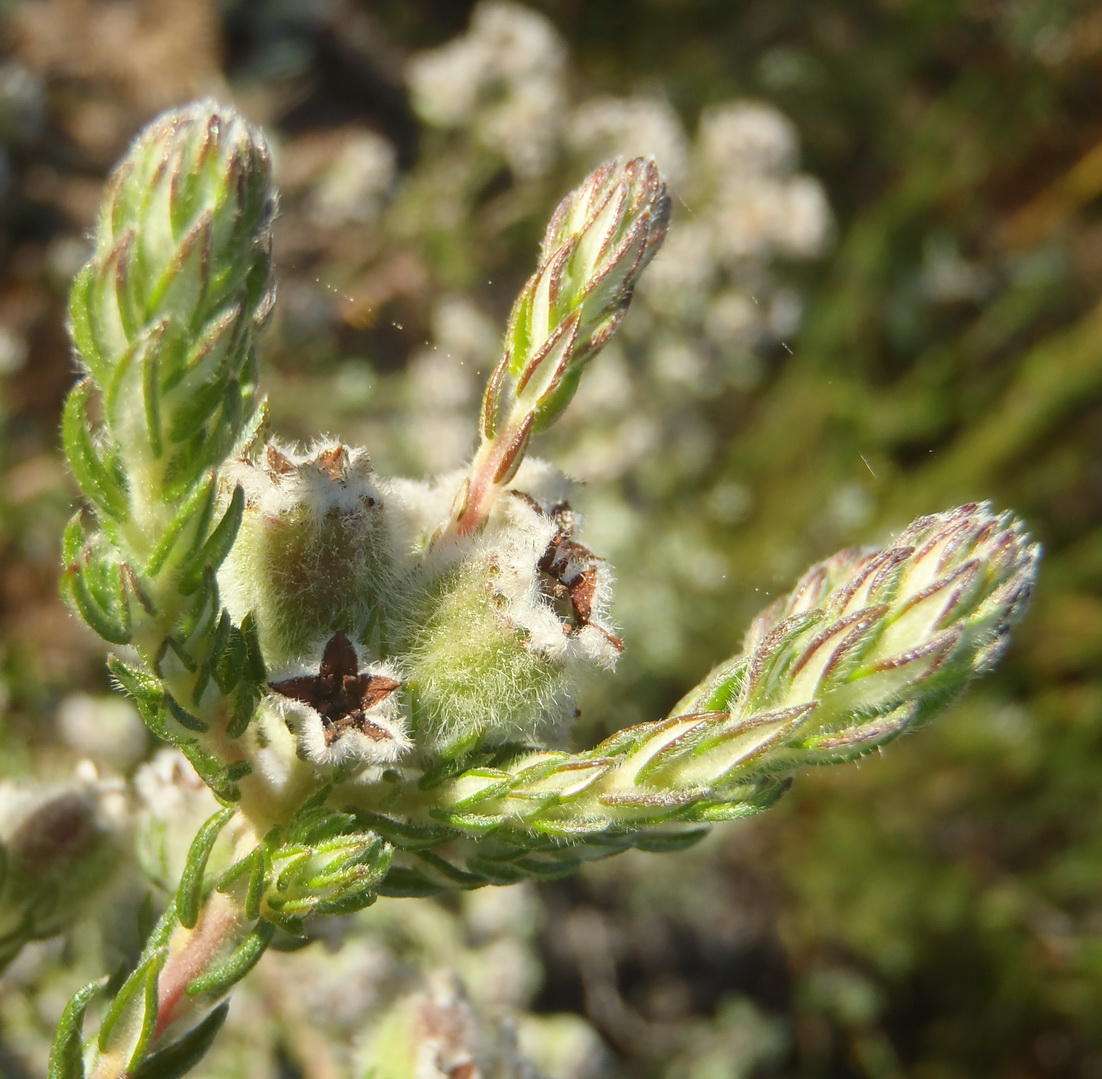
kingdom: Plantae
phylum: Tracheophyta
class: Magnoliopsida
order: Rosales
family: Rhamnaceae
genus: Phylica
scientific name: Phylica purpurea
